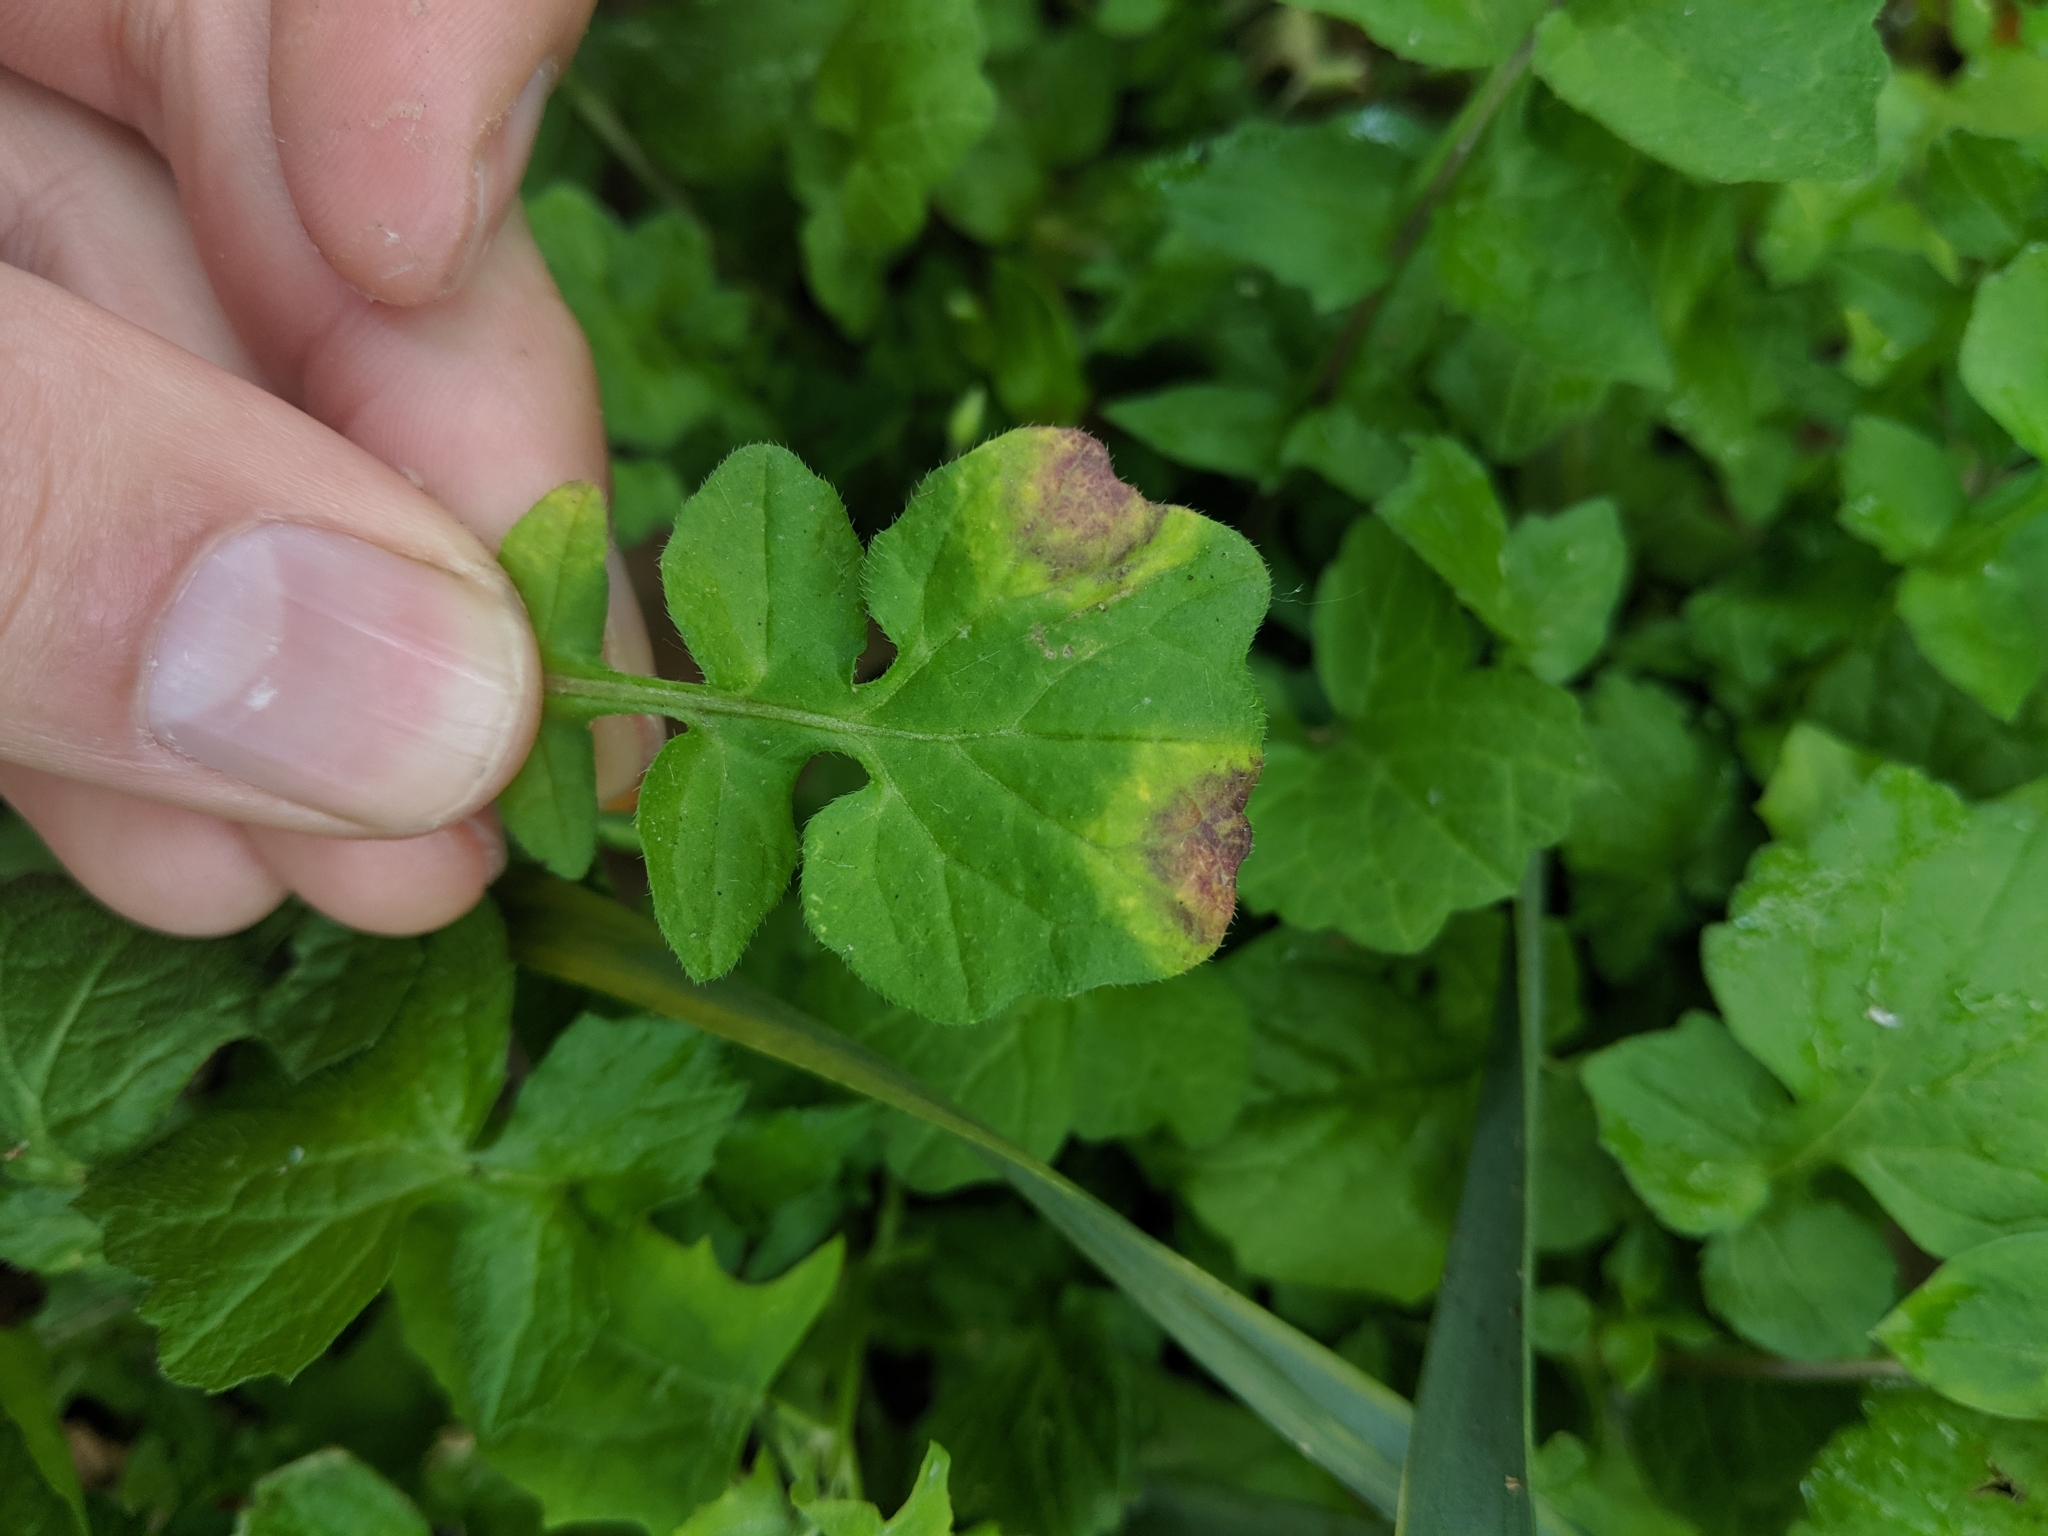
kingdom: Chromista
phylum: Oomycota
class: Peronosporea
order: Albuginales
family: Albuginaceae
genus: Albugo
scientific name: Albugo candida
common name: Crucifer white blister
